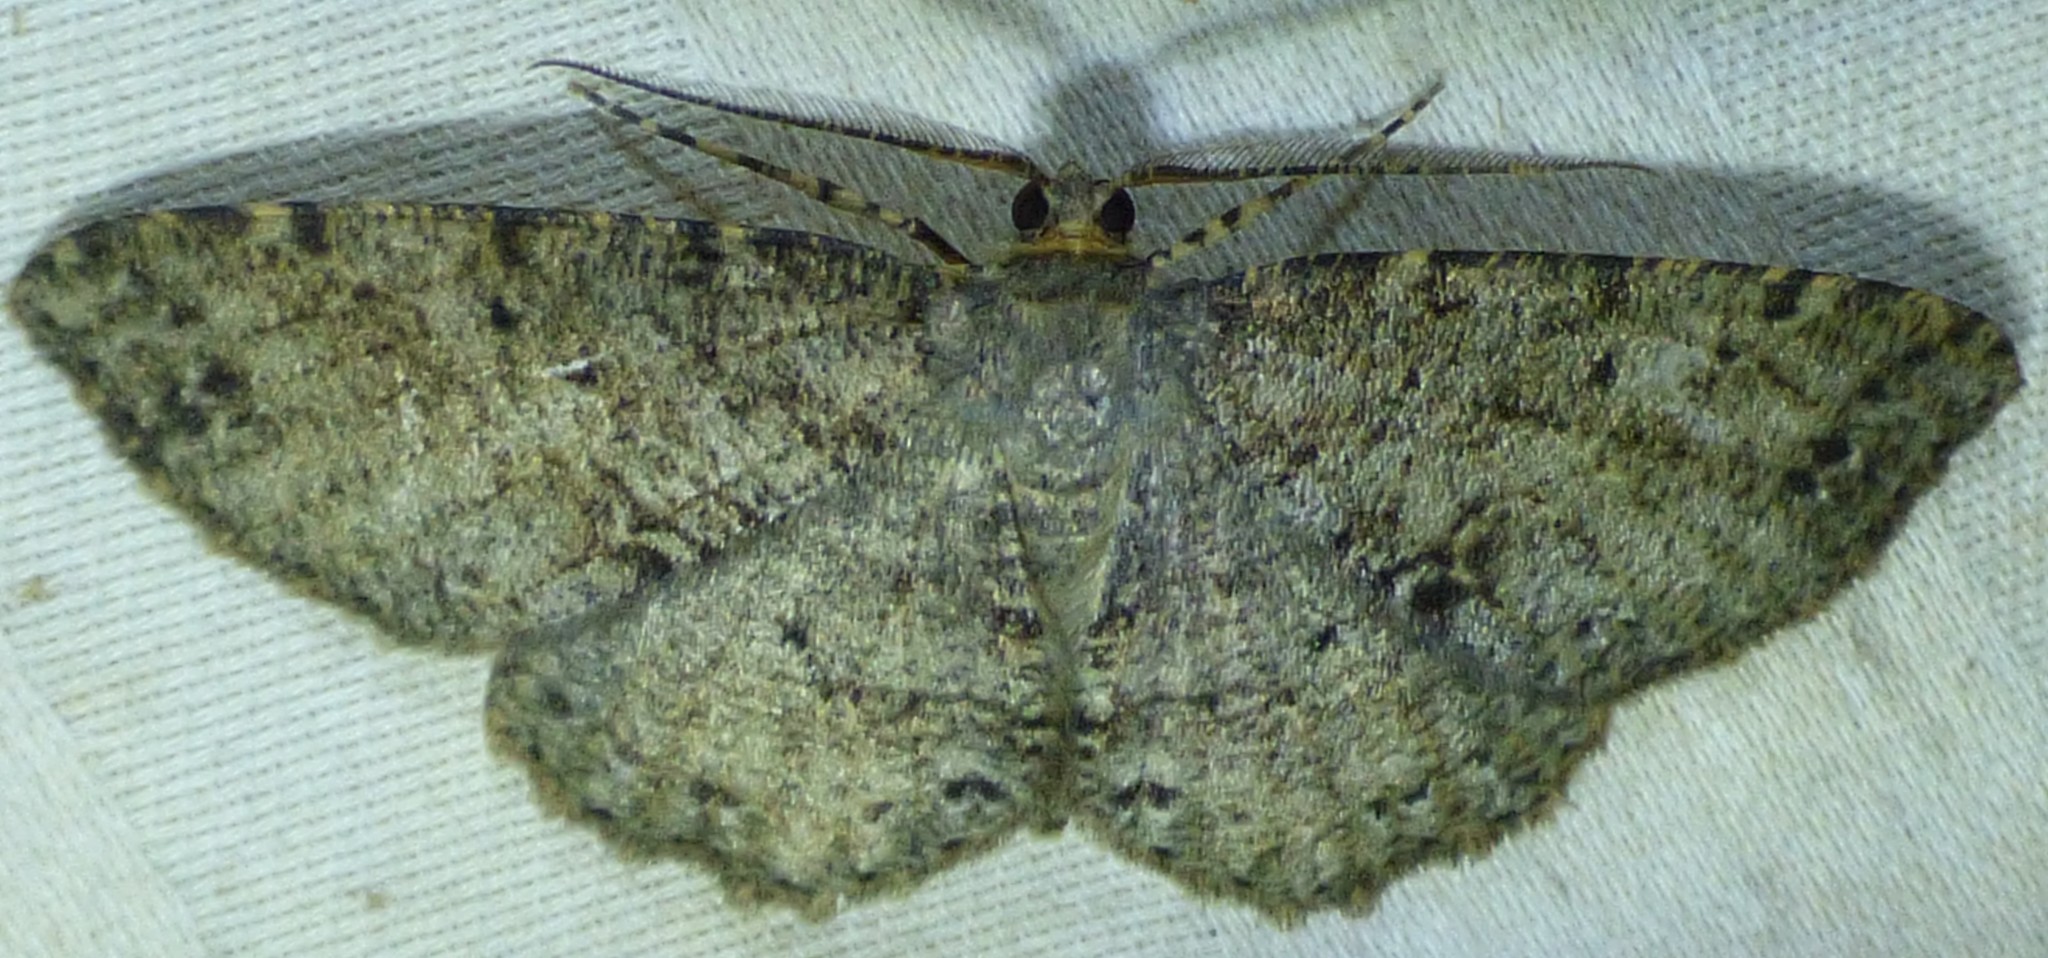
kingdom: Animalia
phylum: Arthropoda
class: Insecta
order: Lepidoptera
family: Geometridae
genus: Melanolophia
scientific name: Melanolophia canadaria
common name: Canadian melanolophia
